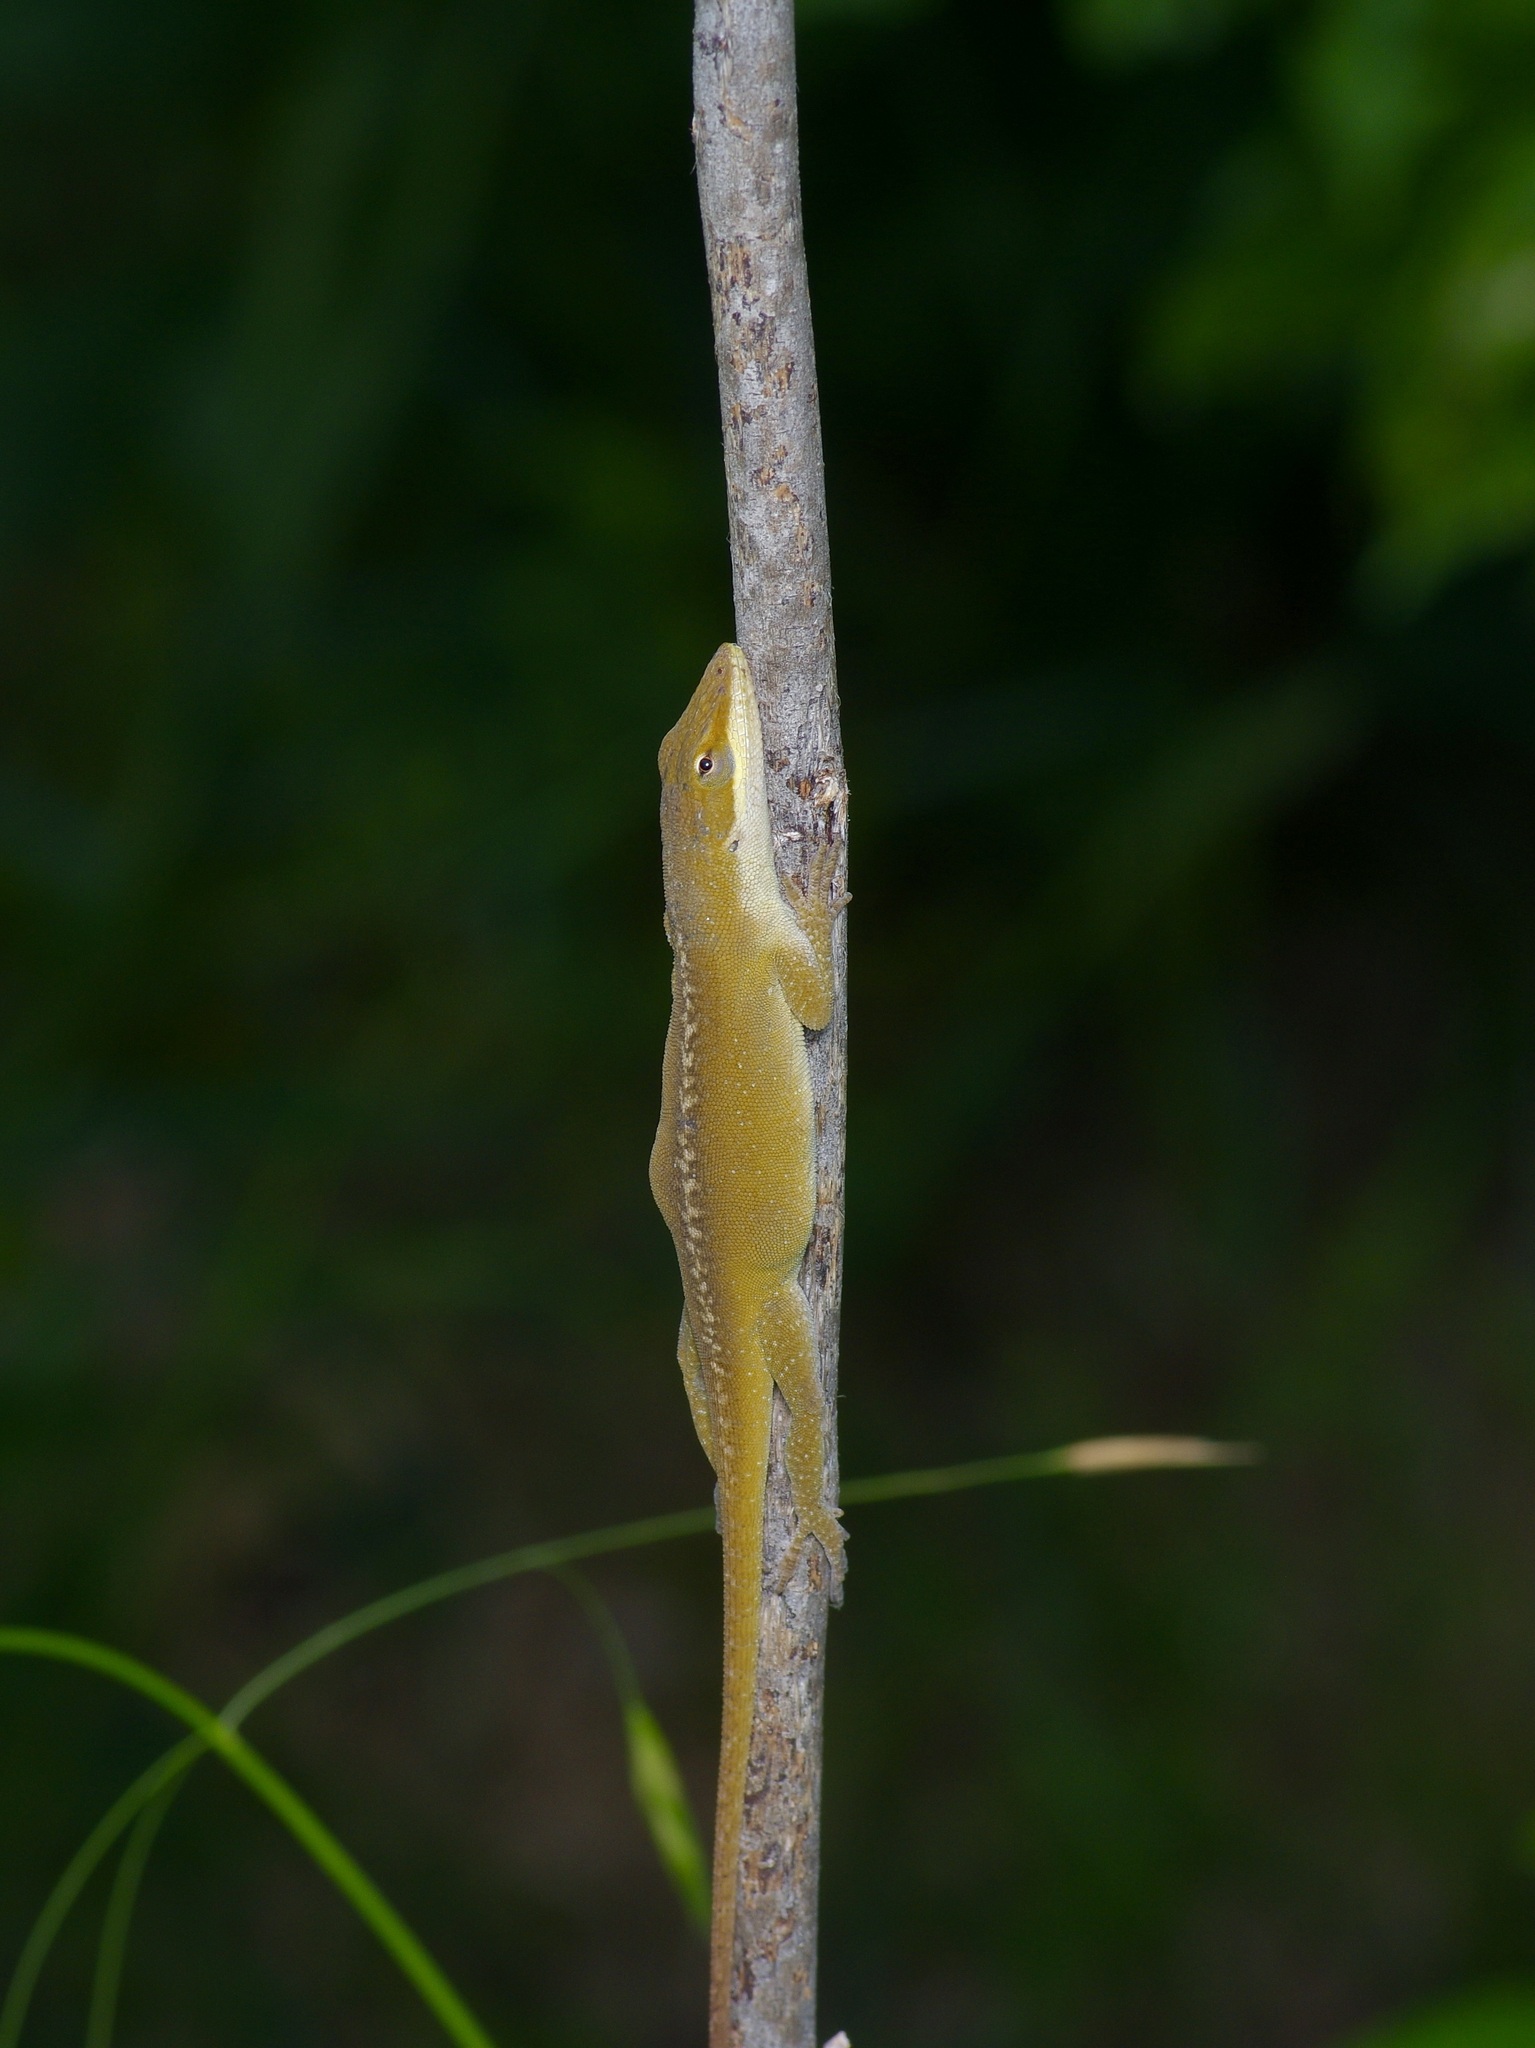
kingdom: Animalia
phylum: Chordata
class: Squamata
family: Dactyloidae
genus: Anolis
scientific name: Anolis carolinensis
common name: Green anole
